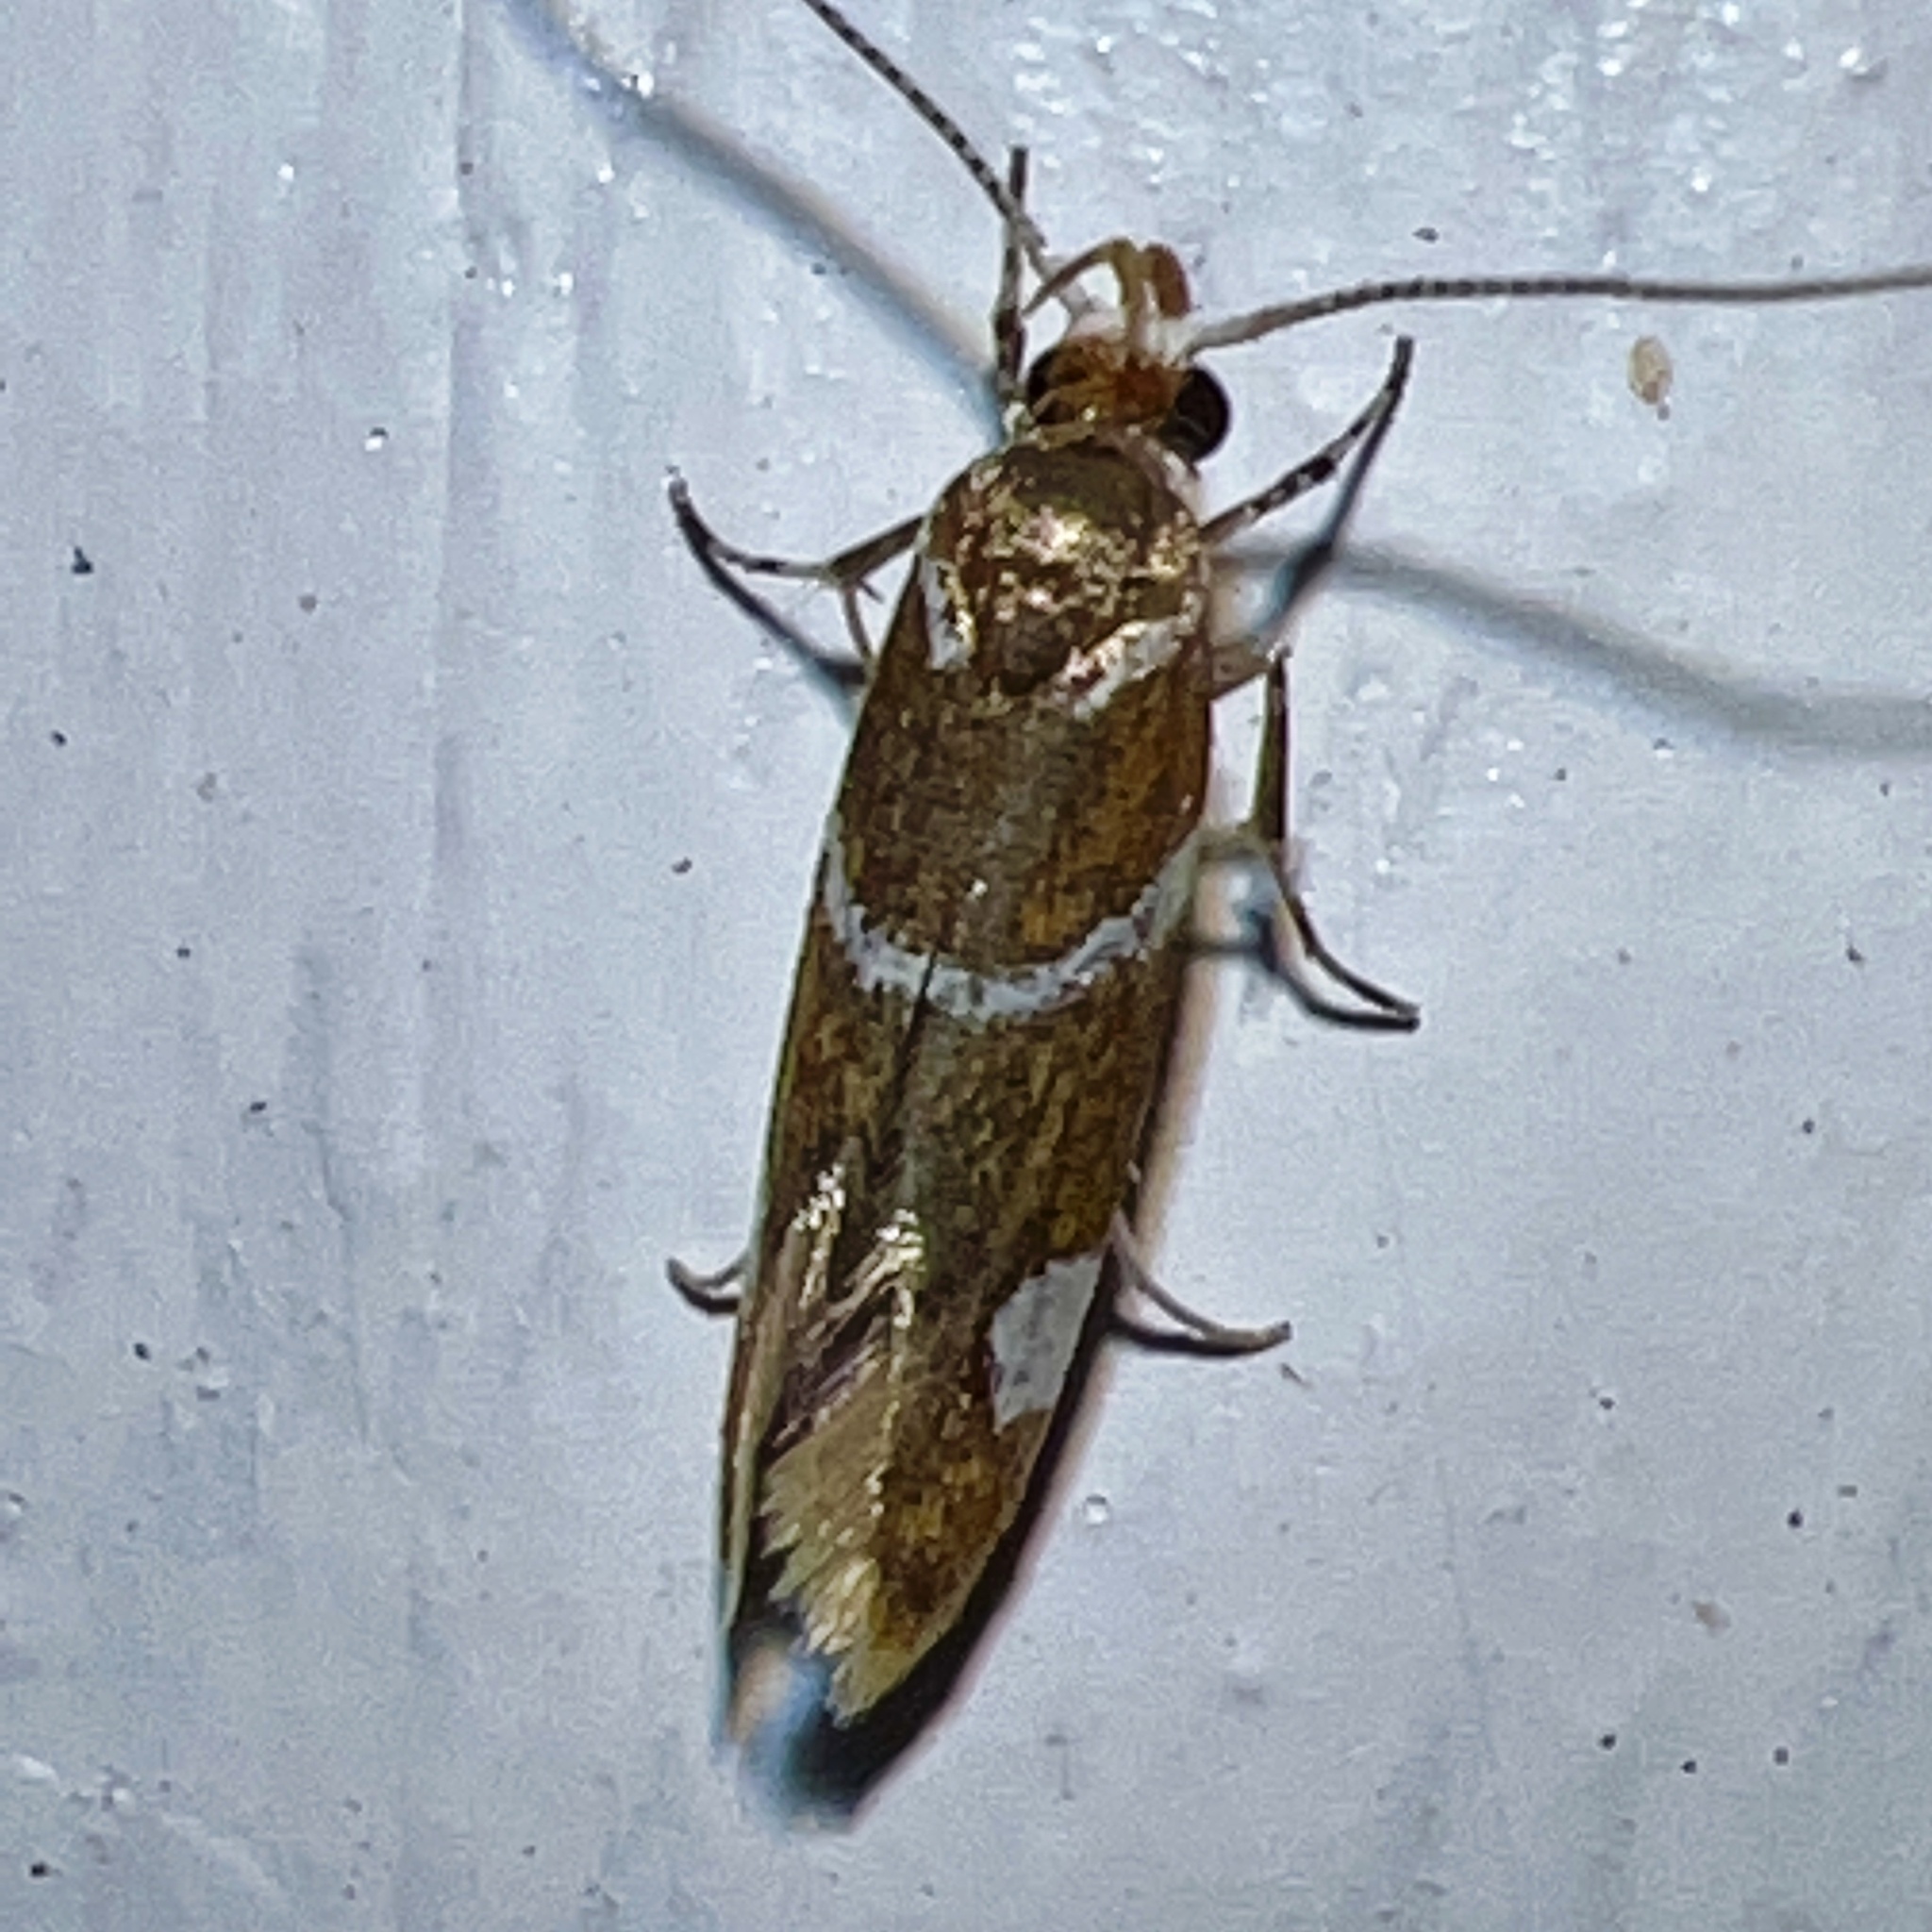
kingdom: Animalia
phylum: Arthropoda
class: Insecta
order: Lepidoptera
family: Oecophoridae
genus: Promalactis
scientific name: Promalactis suzukiella
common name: Moth
